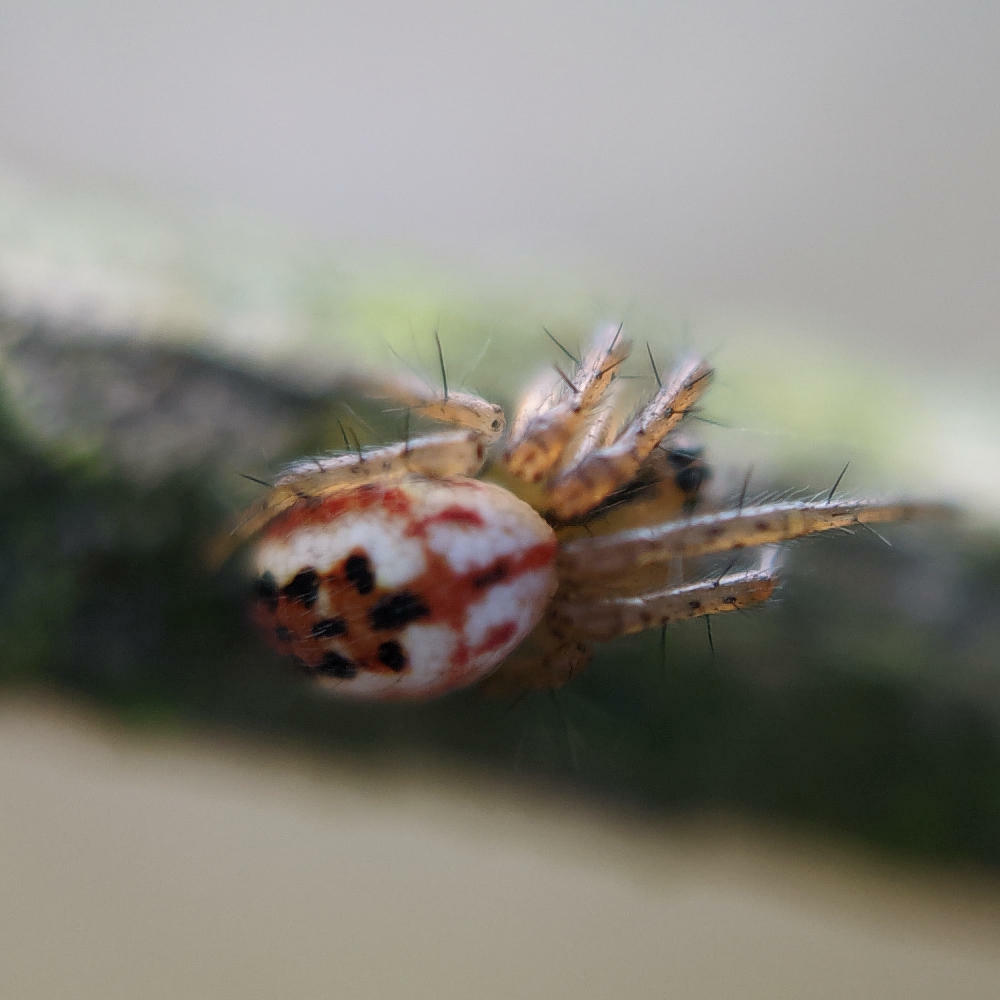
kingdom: Animalia
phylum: Arthropoda
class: Arachnida
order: Araneae
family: Araneidae
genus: Mangora
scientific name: Mangora acalypha
